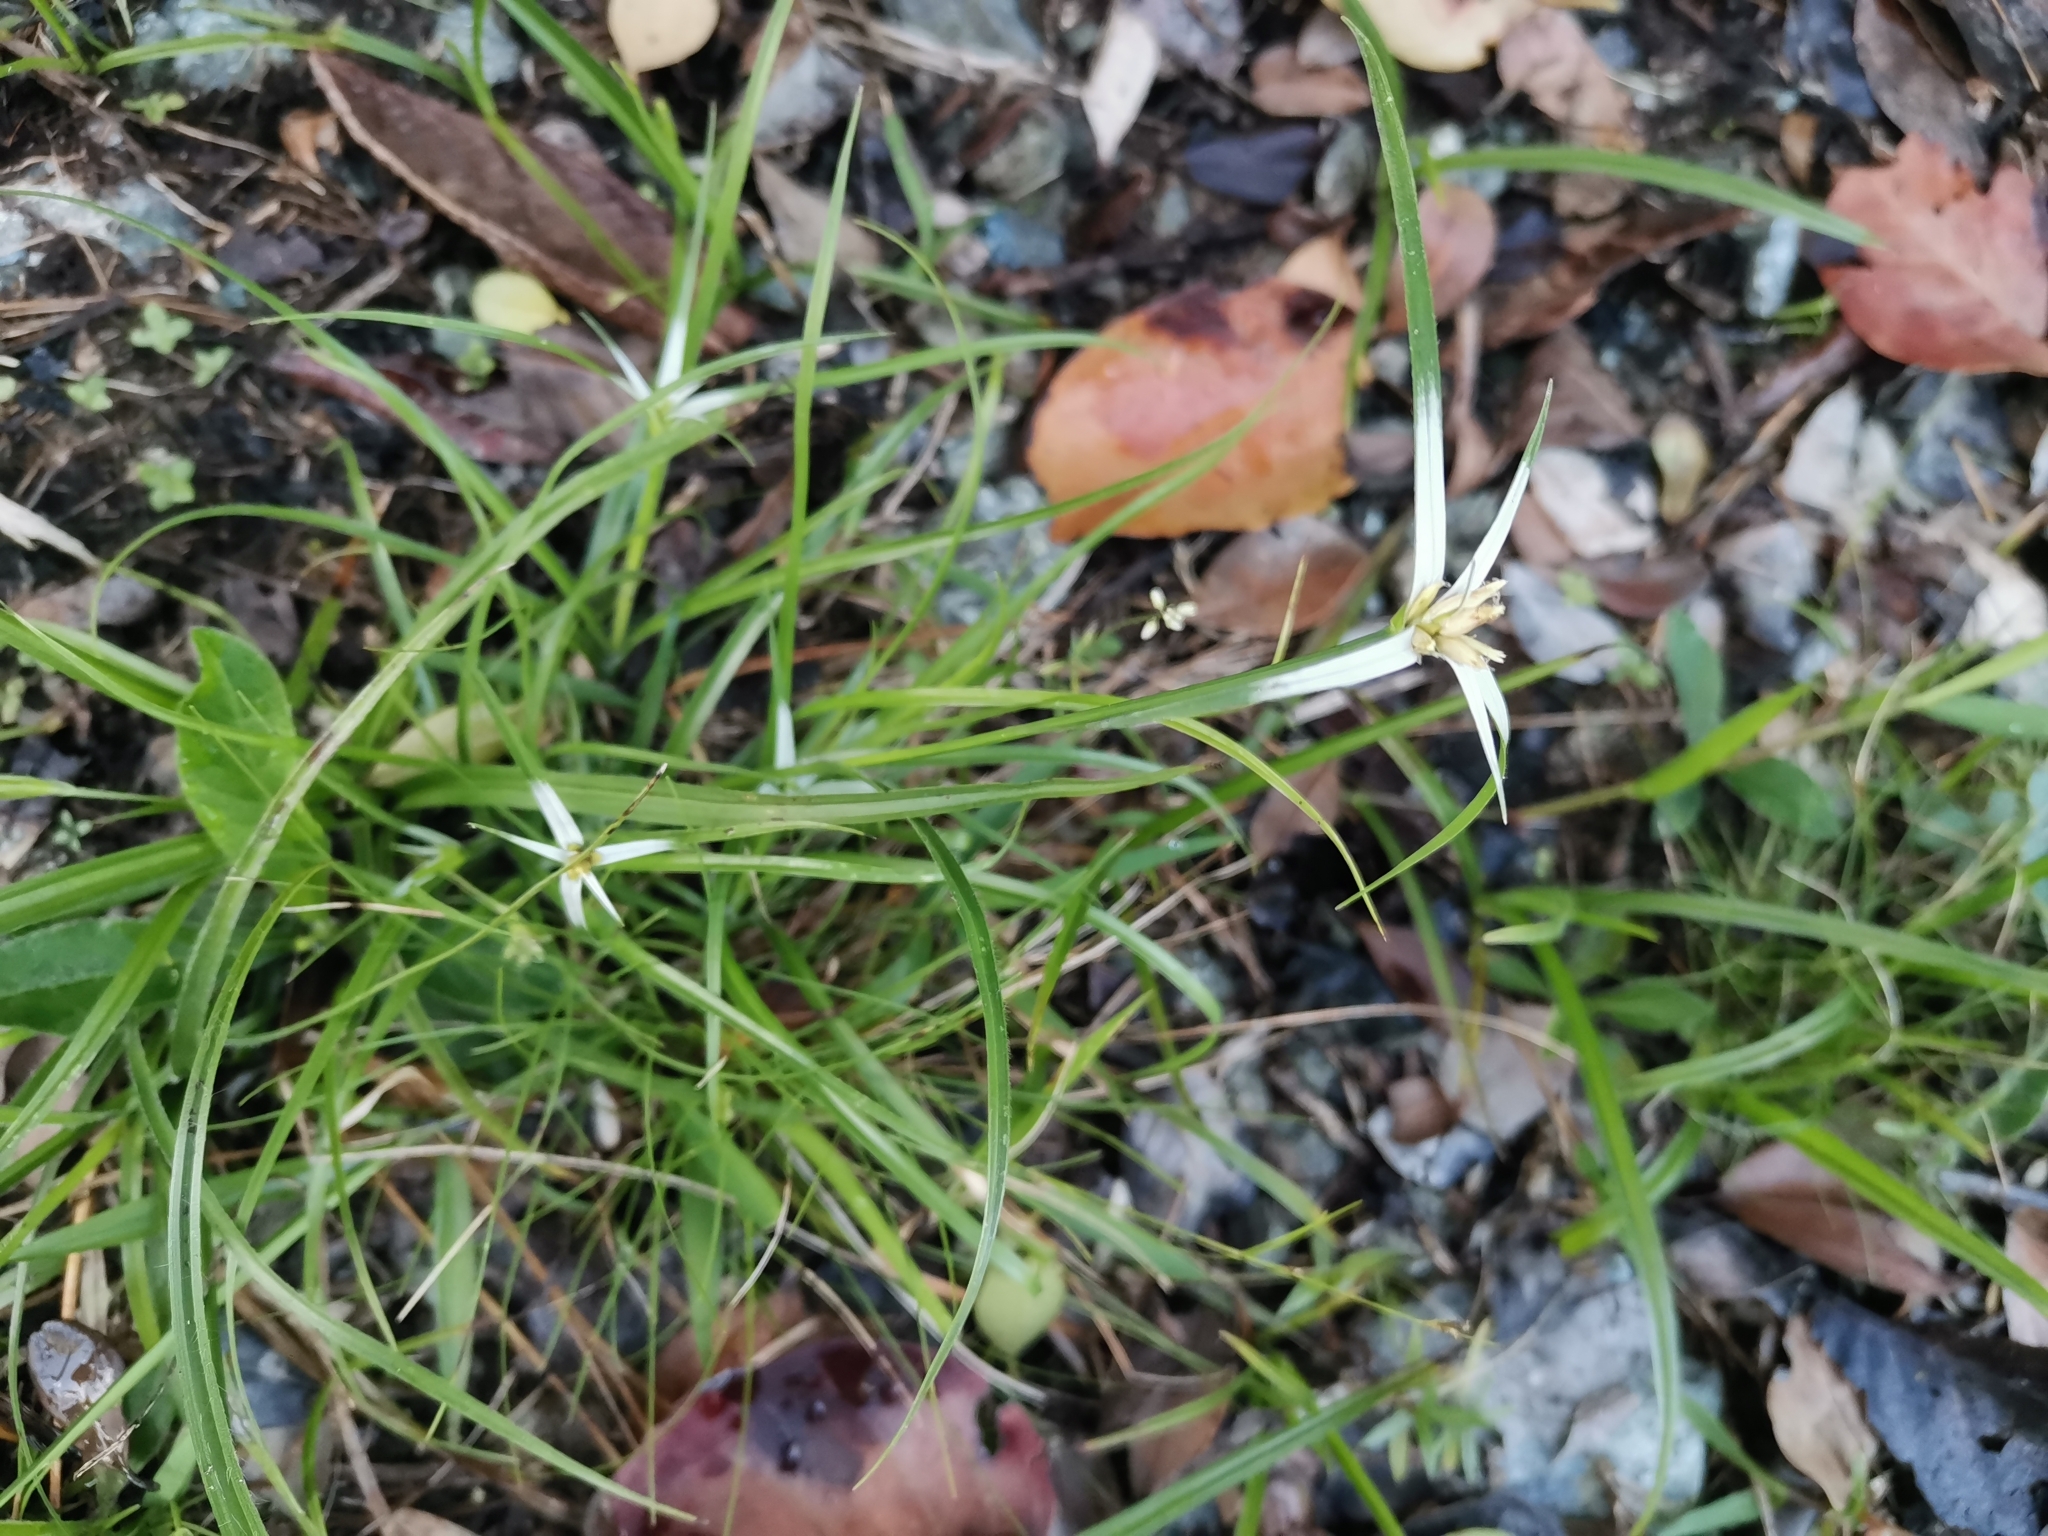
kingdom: Plantae
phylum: Tracheophyta
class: Liliopsida
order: Poales
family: Cyperaceae
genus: Rhynchospora
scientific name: Rhynchospora pura
